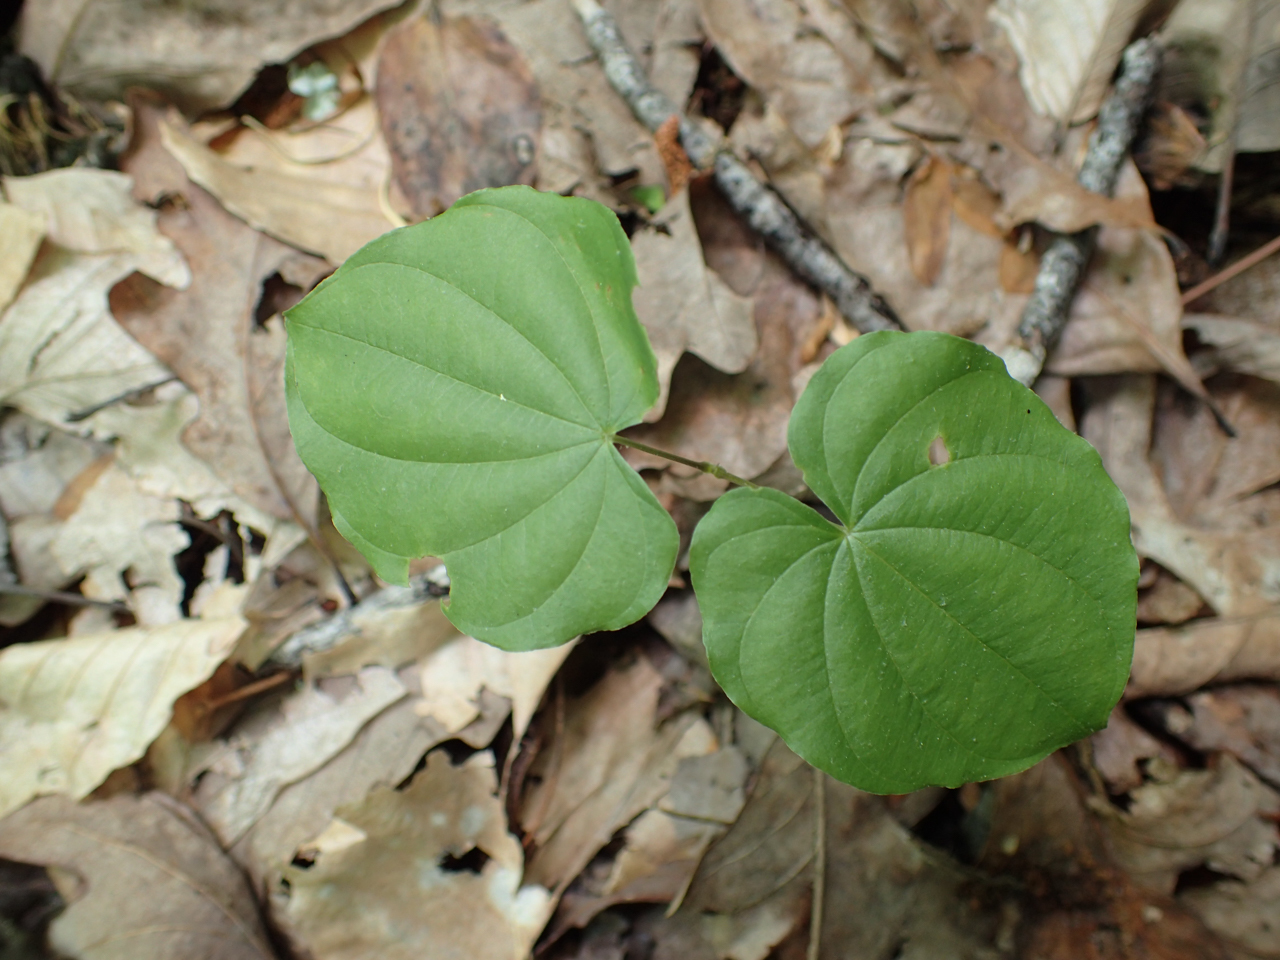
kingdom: Plantae
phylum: Tracheophyta
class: Liliopsida
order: Dioscoreales
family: Dioscoreaceae
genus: Dioscorea
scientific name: Dioscorea villosa
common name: Wild yam
